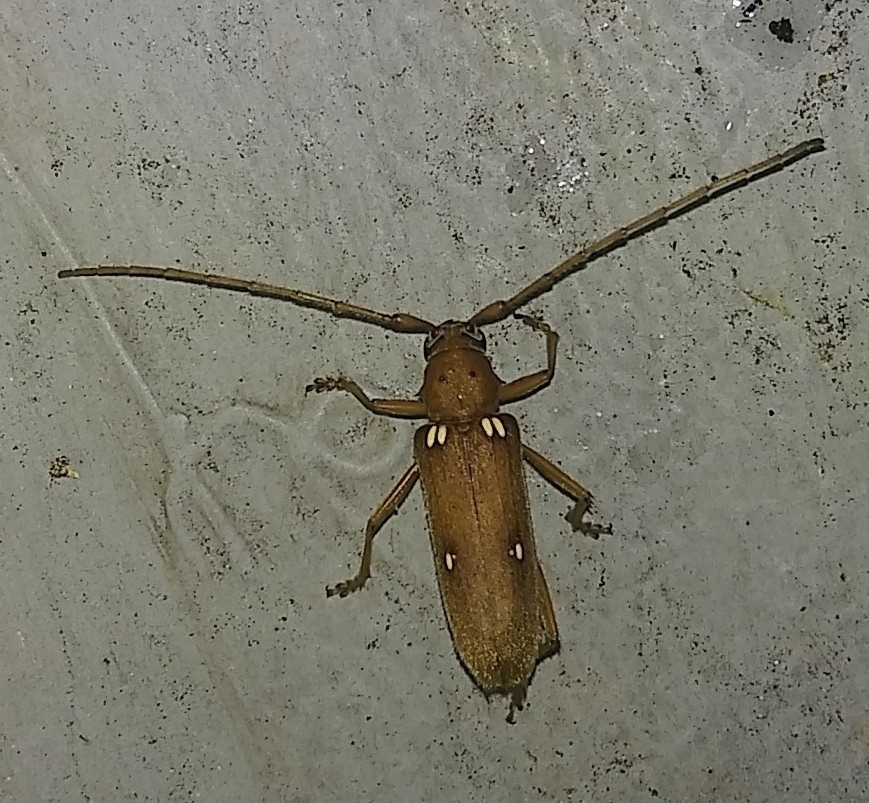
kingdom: Animalia
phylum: Arthropoda
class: Insecta
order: Coleoptera
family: Cerambycidae
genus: Eburia
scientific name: Eburia quadrigeminata
